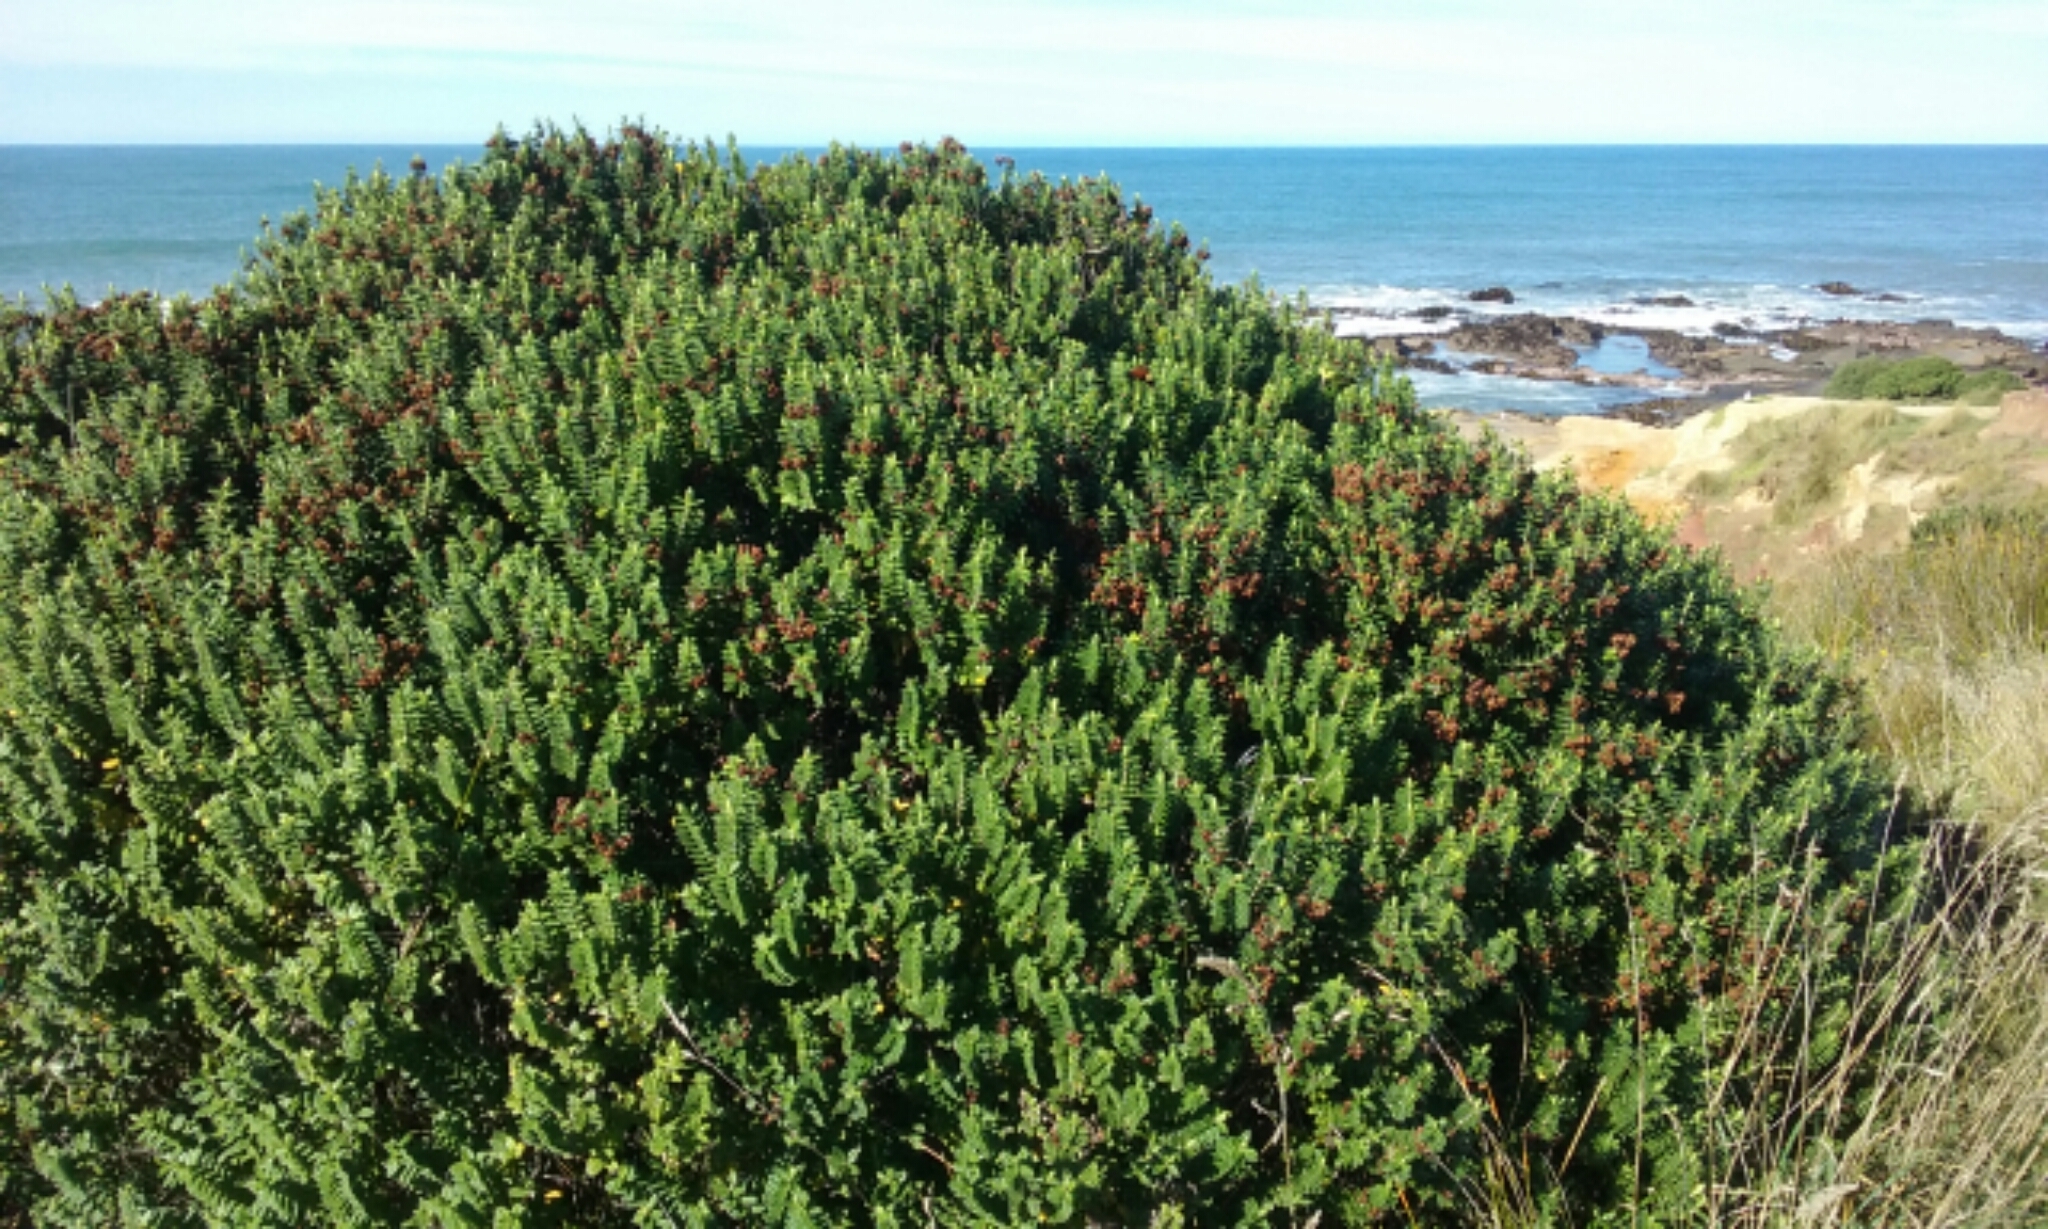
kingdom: Plantae
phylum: Tracheophyta
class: Magnoliopsida
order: Lamiales
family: Plantaginaceae
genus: Veronica
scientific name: Veronica elliptica
